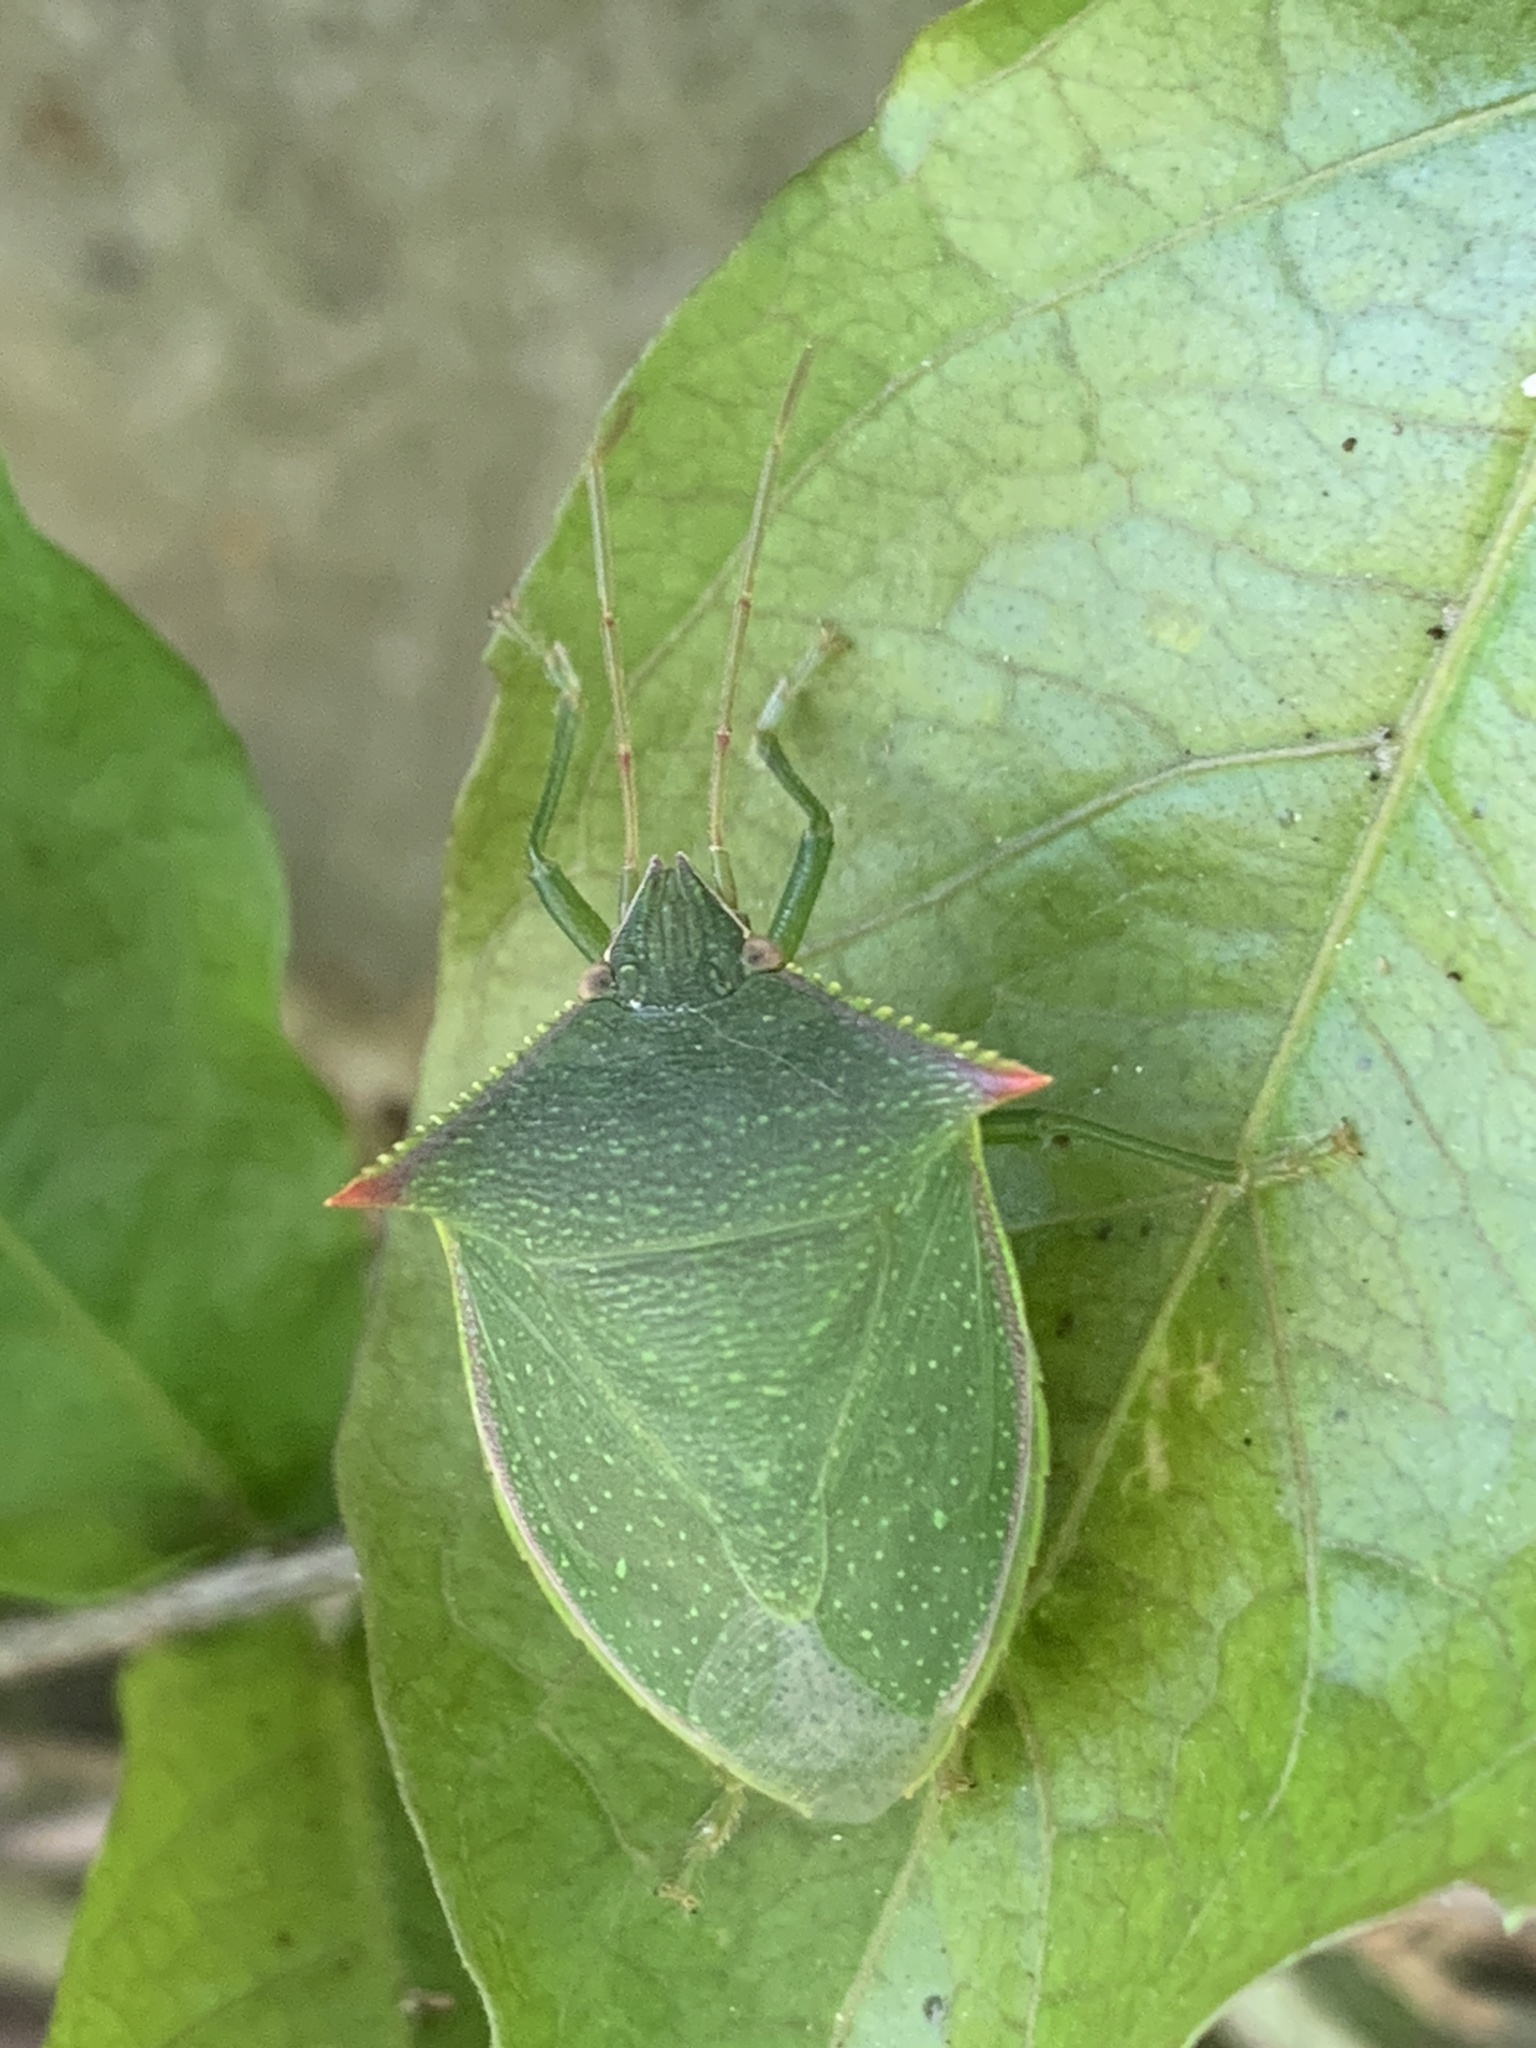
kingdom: Animalia
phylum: Arthropoda
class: Insecta
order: Hemiptera
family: Pentatomidae
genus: Loxa
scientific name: Loxa deducta
